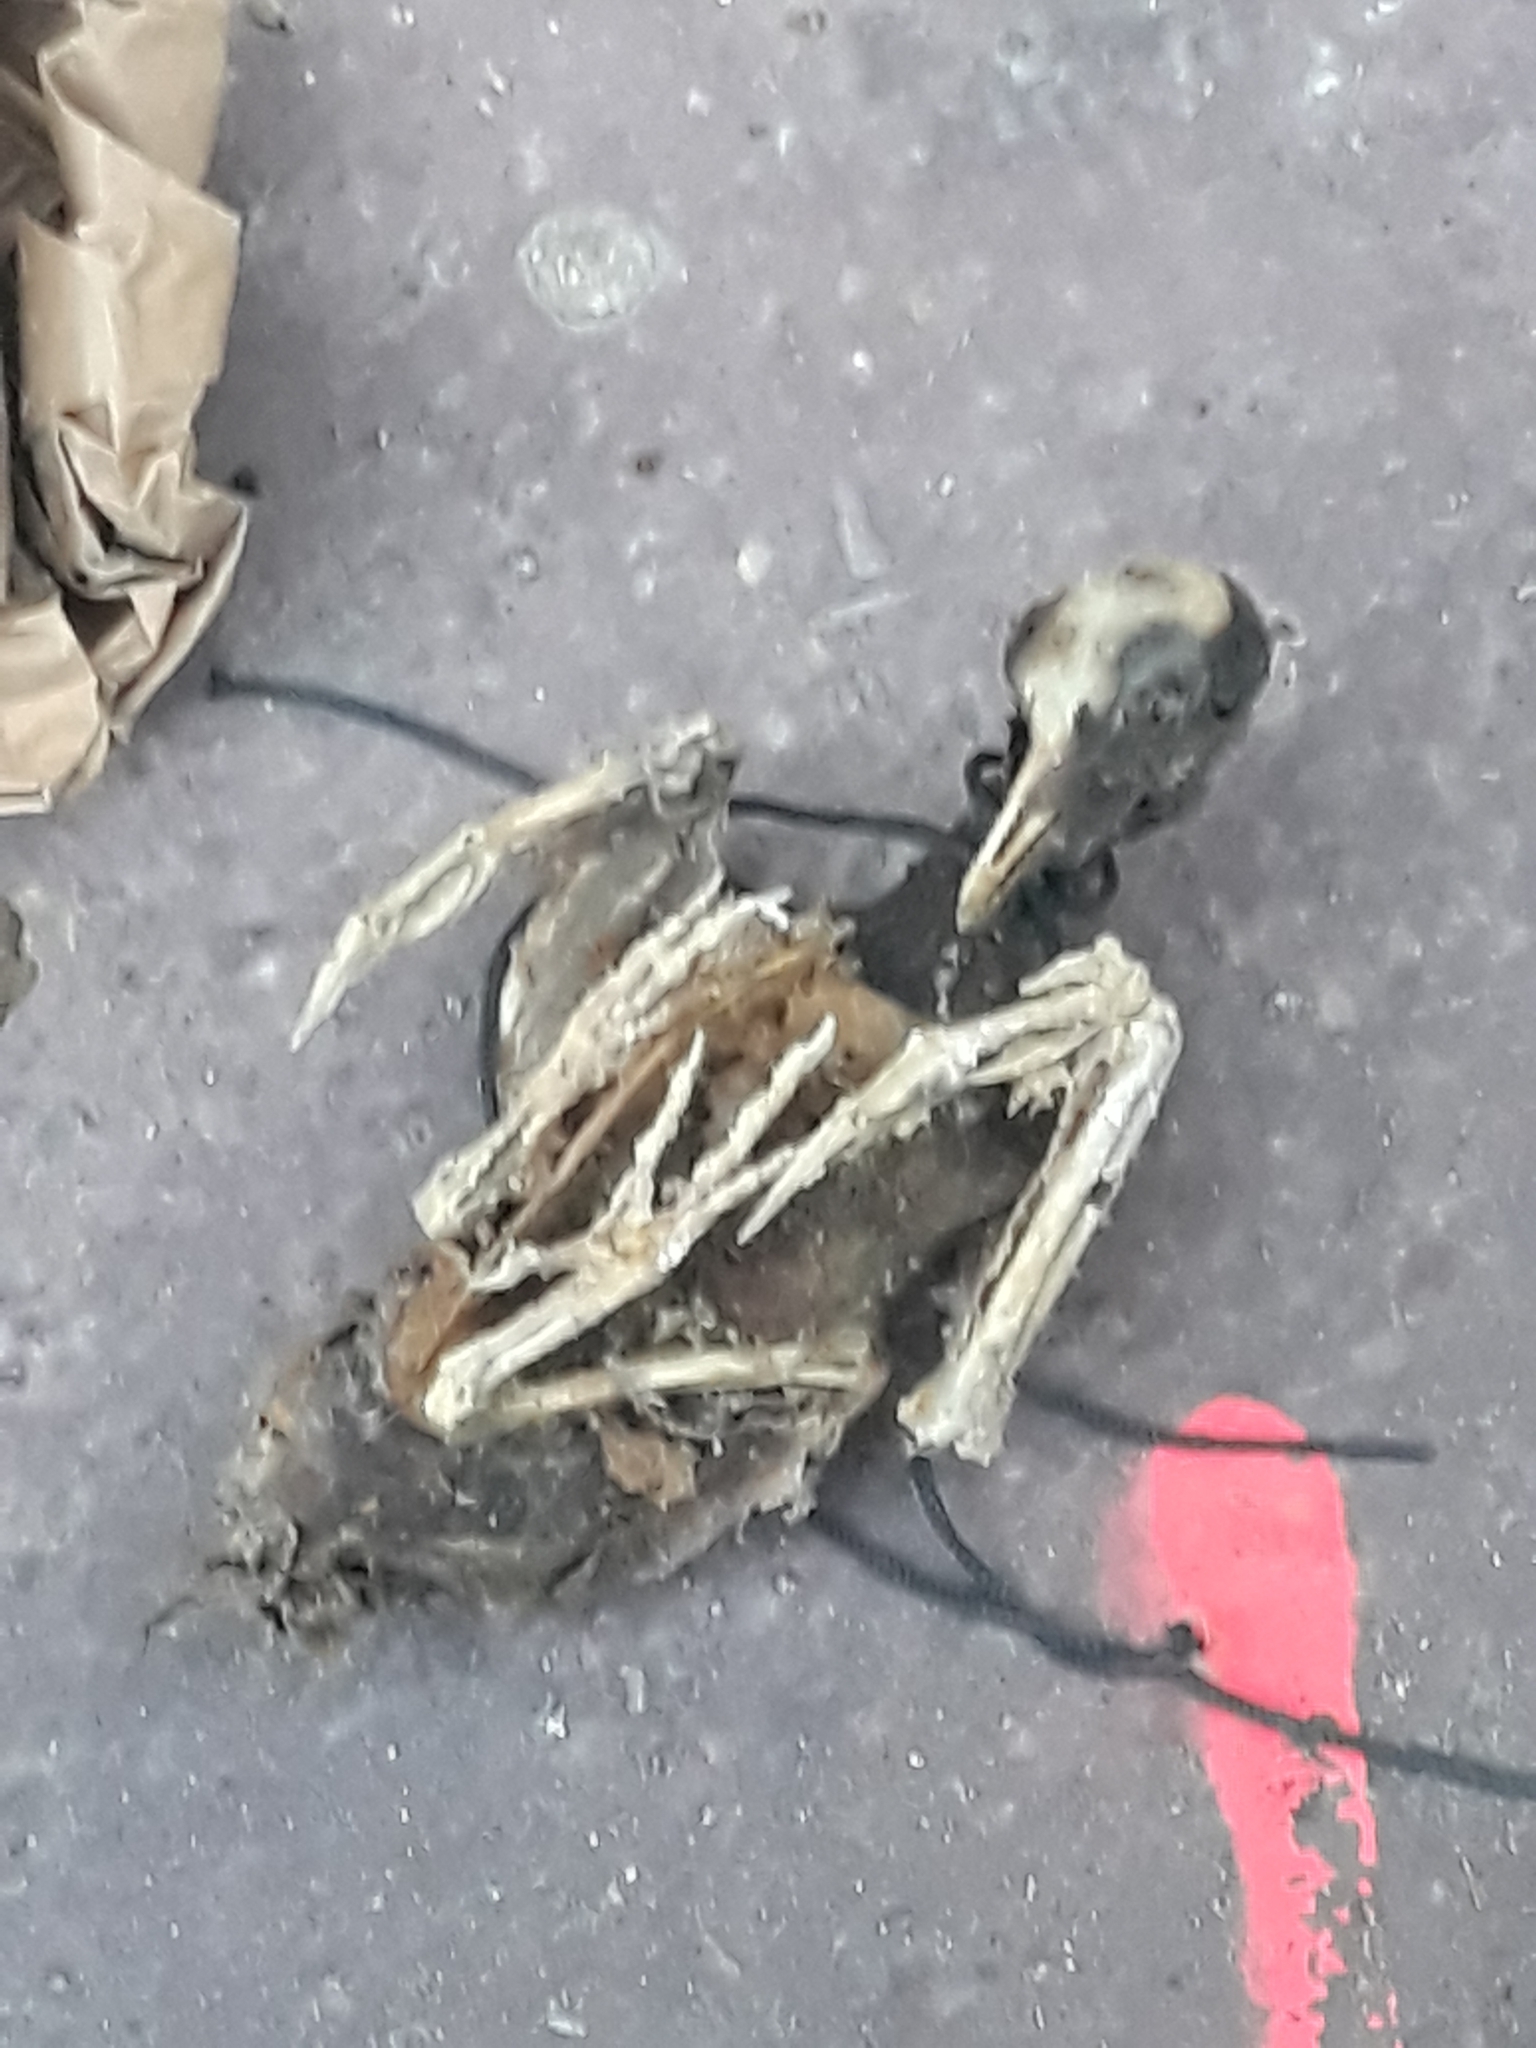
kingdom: Animalia
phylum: Chordata
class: Aves
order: Columbiformes
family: Columbidae
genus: Columba
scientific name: Columba livia
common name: Rock pigeon
